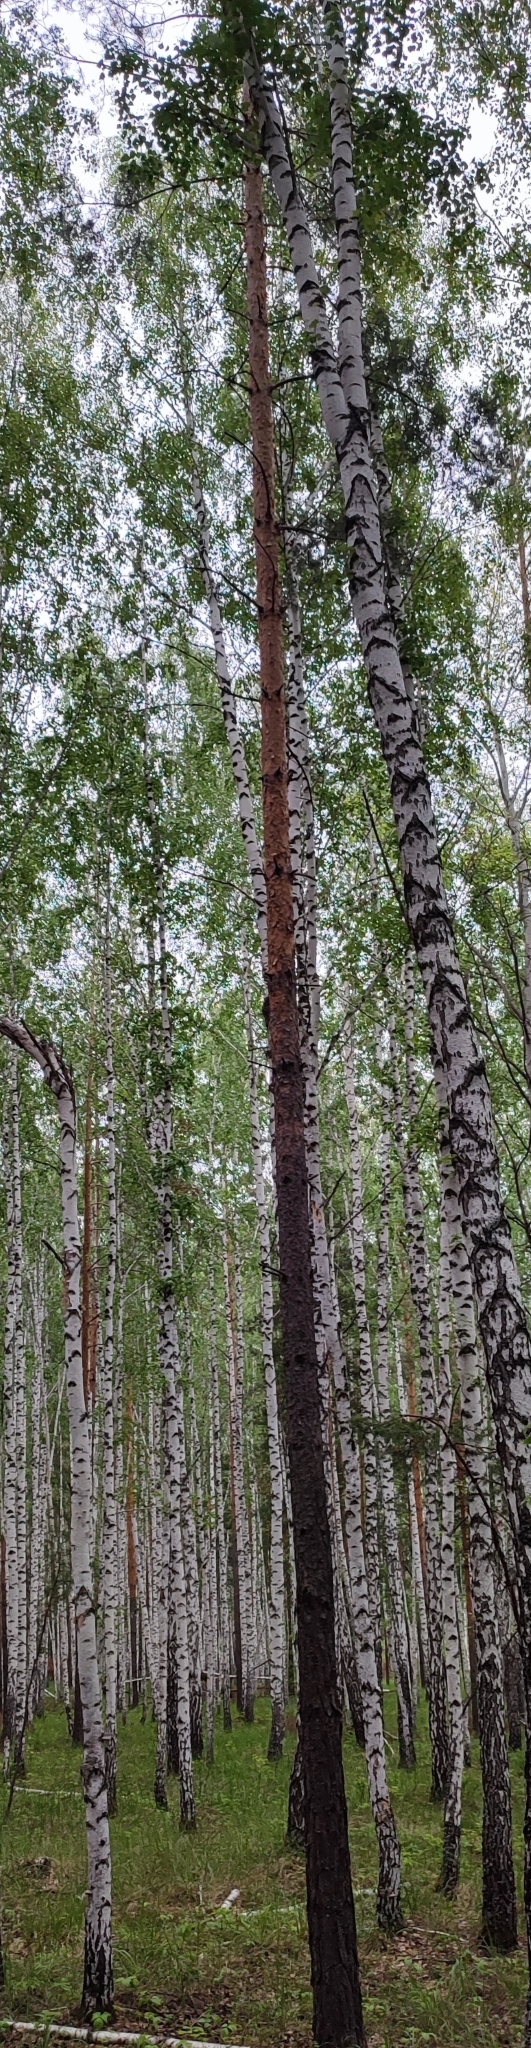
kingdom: Plantae
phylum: Tracheophyta
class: Pinopsida
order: Pinales
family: Pinaceae
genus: Pinus
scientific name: Pinus sylvestris
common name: Scots pine
